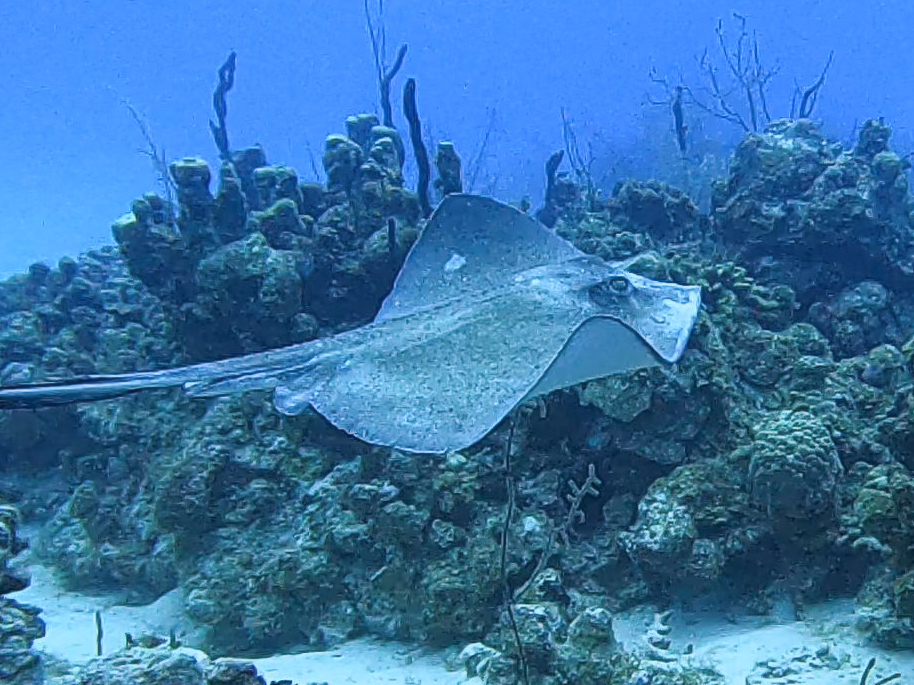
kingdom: Animalia
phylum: Chordata
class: Elasmobranchii
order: Myliobatiformes
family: Dasyatidae
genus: Hypanus
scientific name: Hypanus americanus
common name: Southern stingray
